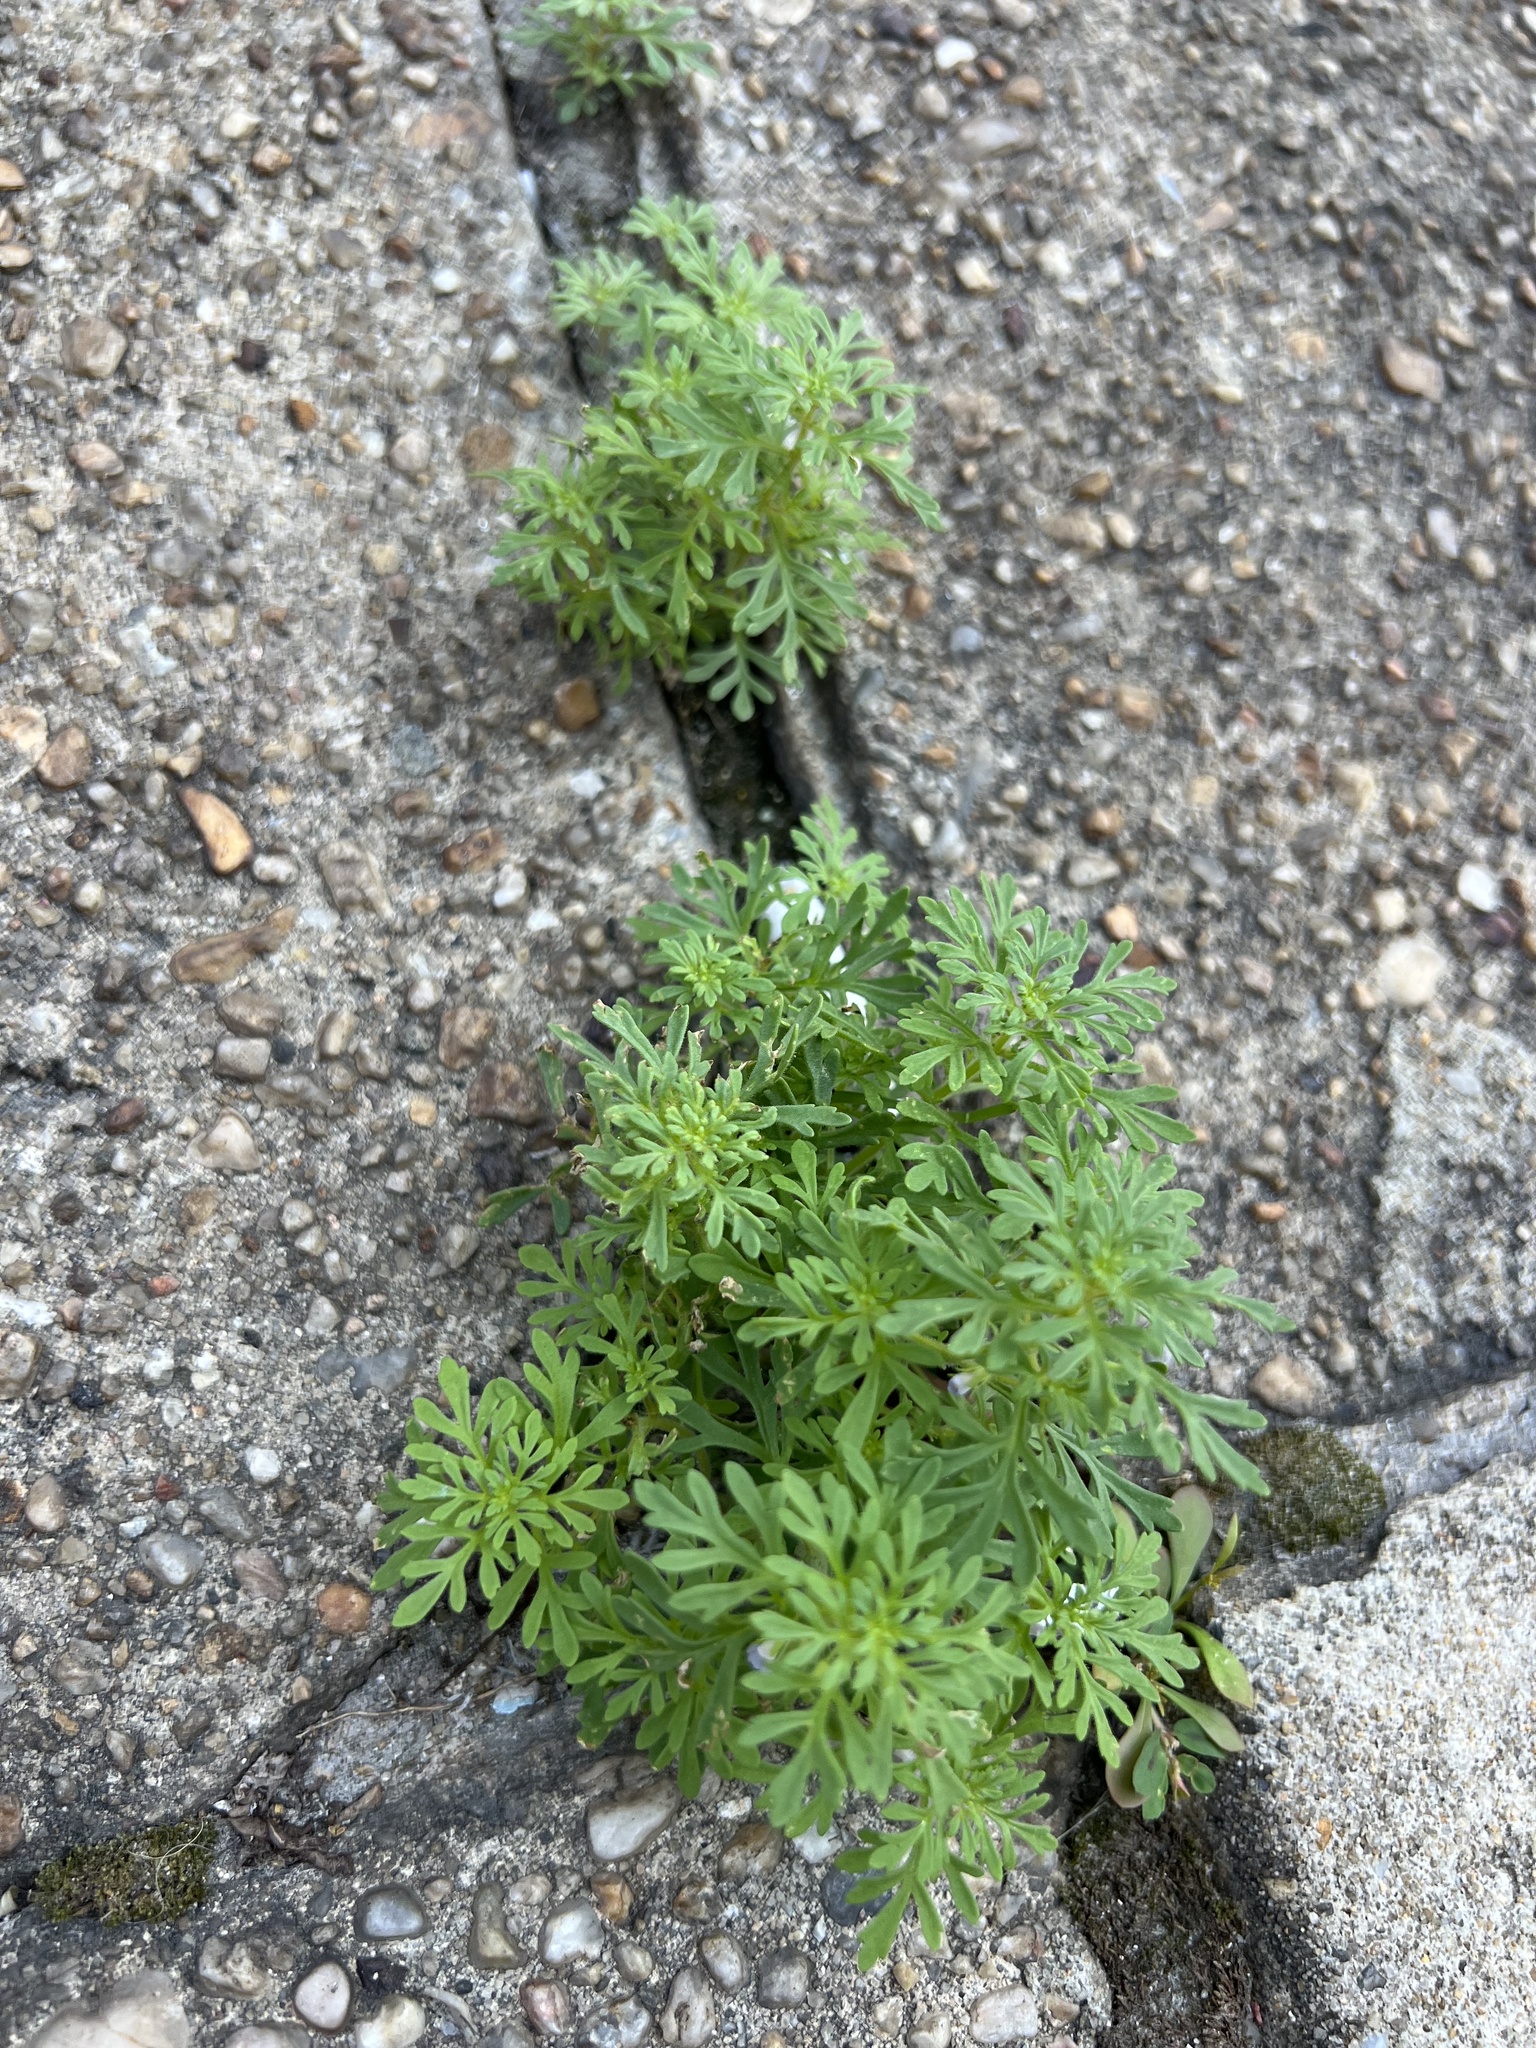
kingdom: Plantae
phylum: Tracheophyta
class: Magnoliopsida
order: Lamiales
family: Plantaginaceae
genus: Leucospora
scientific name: Leucospora multifida
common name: Narrow-leaf paleseed
